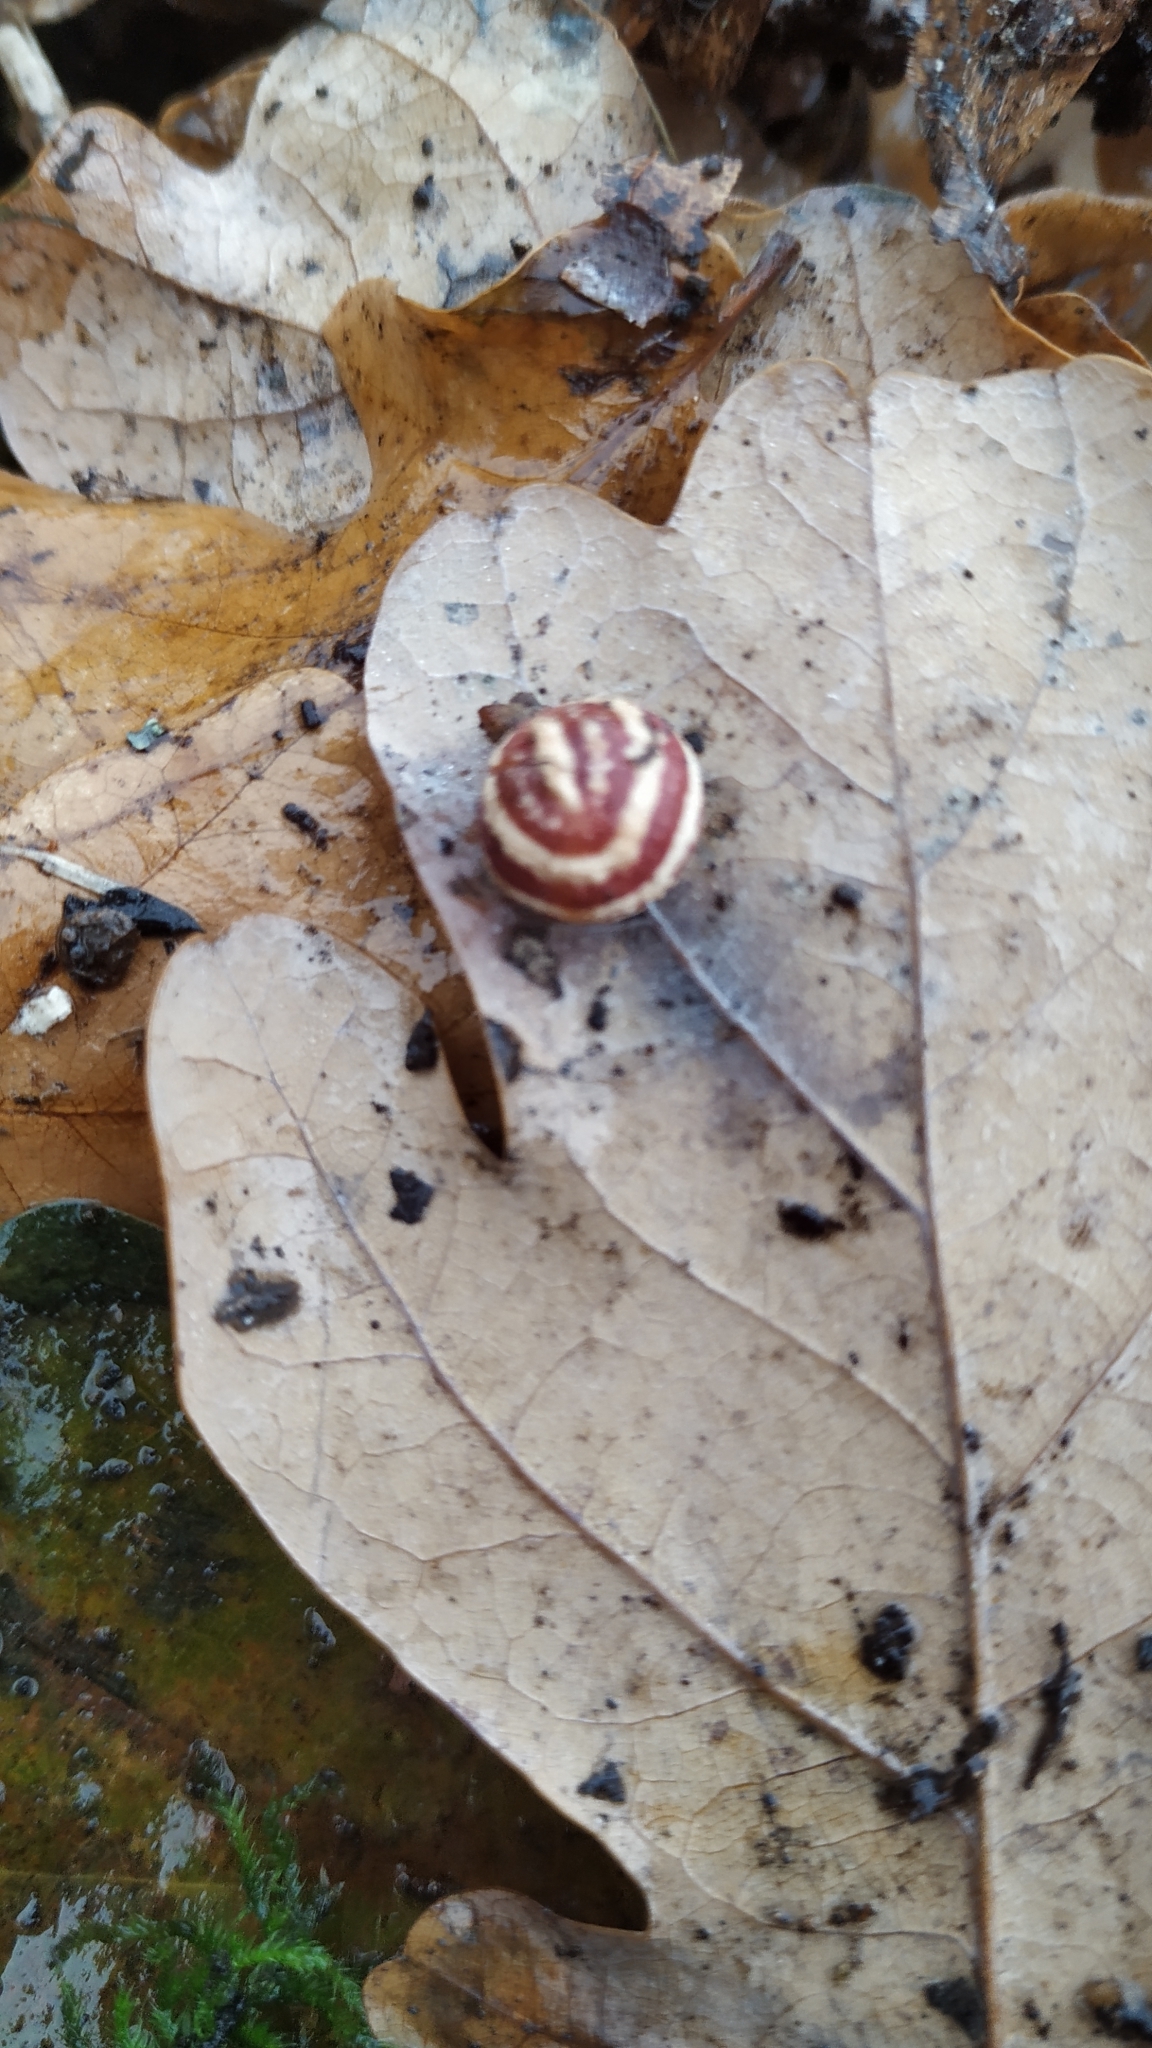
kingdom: Animalia
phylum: Arthropoda
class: Insecta
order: Hymenoptera
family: Cynipidae
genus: Cynips
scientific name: Cynips longiventris
